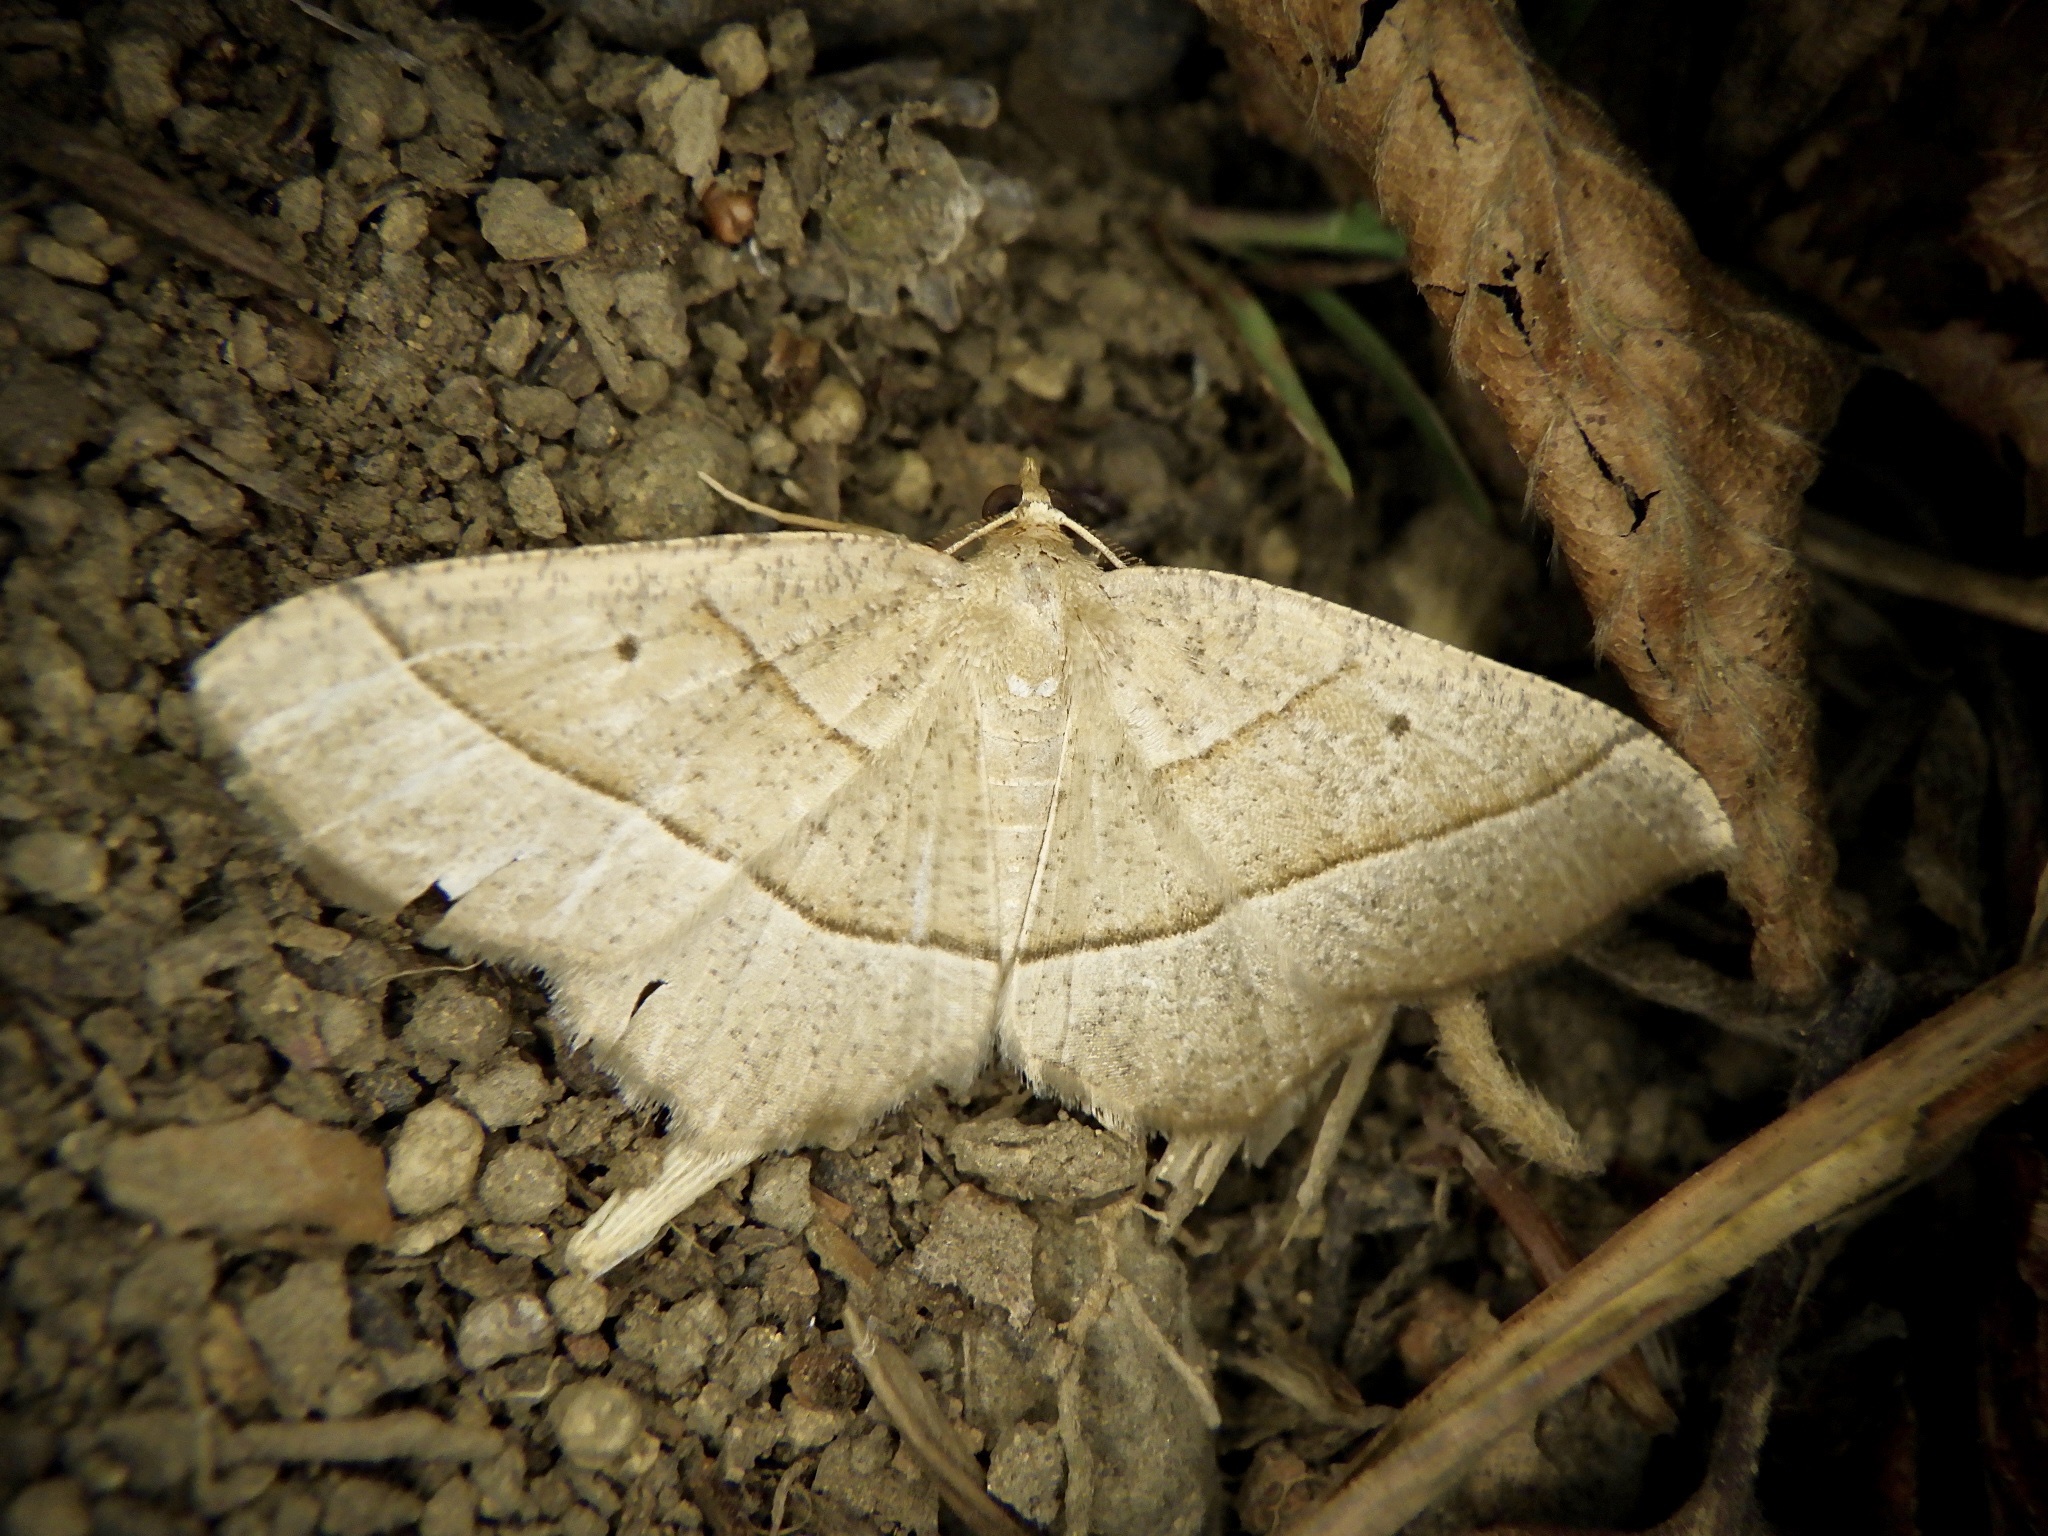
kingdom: Animalia
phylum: Arthropoda
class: Insecta
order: Lepidoptera
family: Geometridae
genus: Rhynchobapta
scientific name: Rhynchobapta cervinaria
